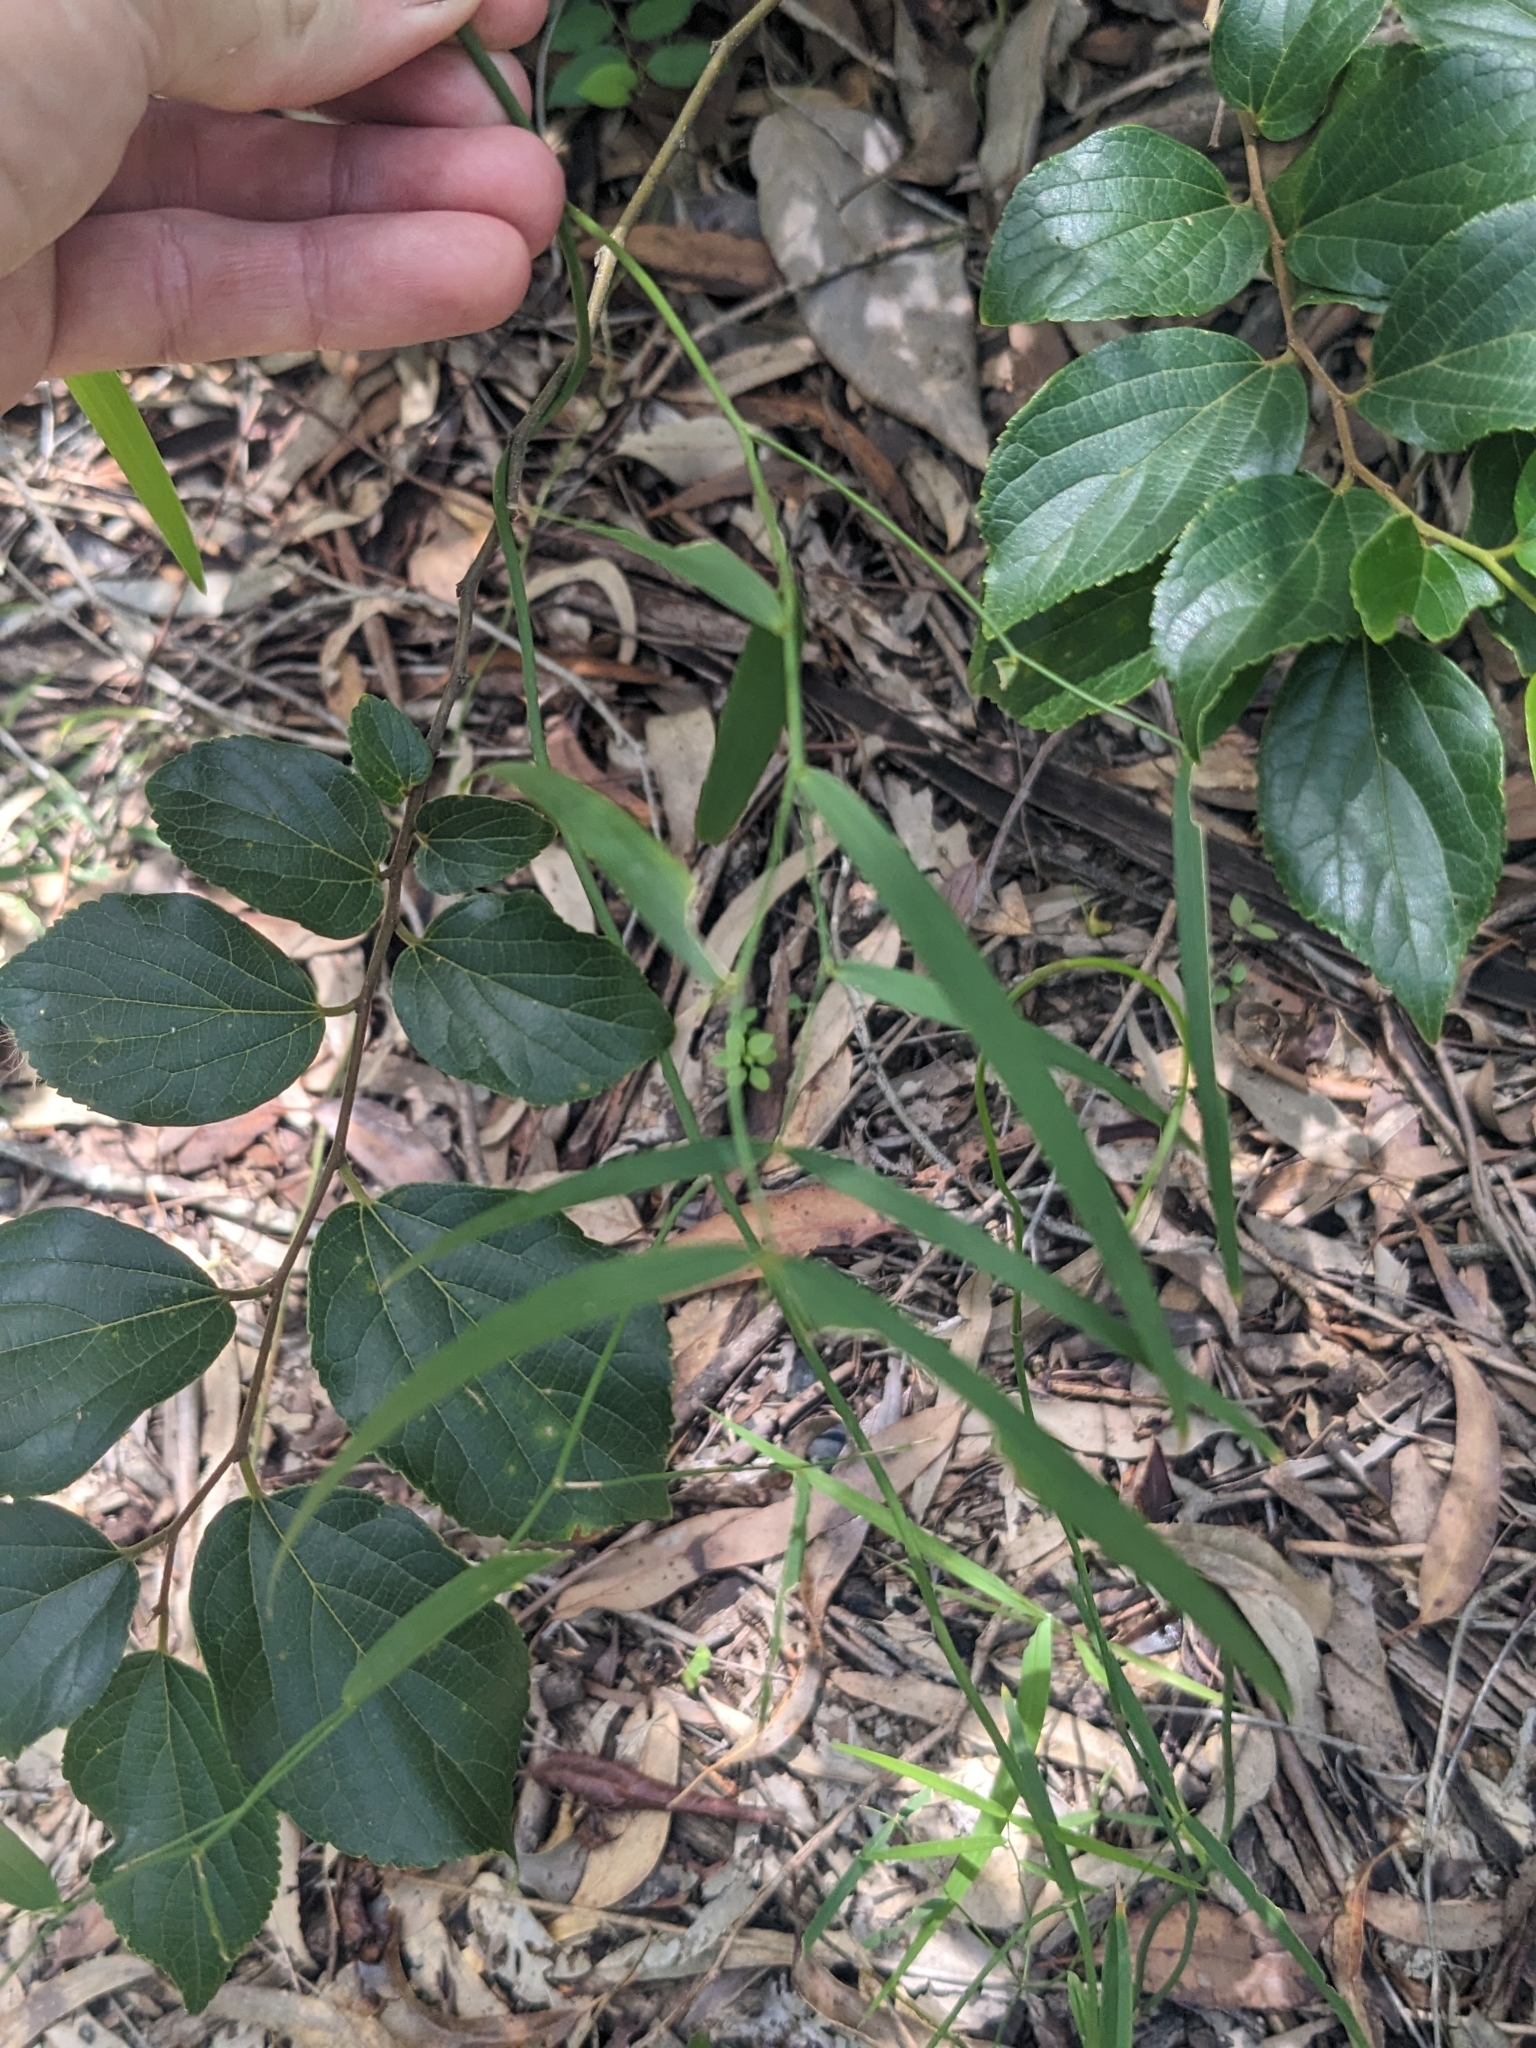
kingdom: Plantae
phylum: Tracheophyta
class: Magnoliopsida
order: Rosales
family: Cannabaceae
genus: Celtis
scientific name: Celtis sinensis
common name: Chinese hackberry
